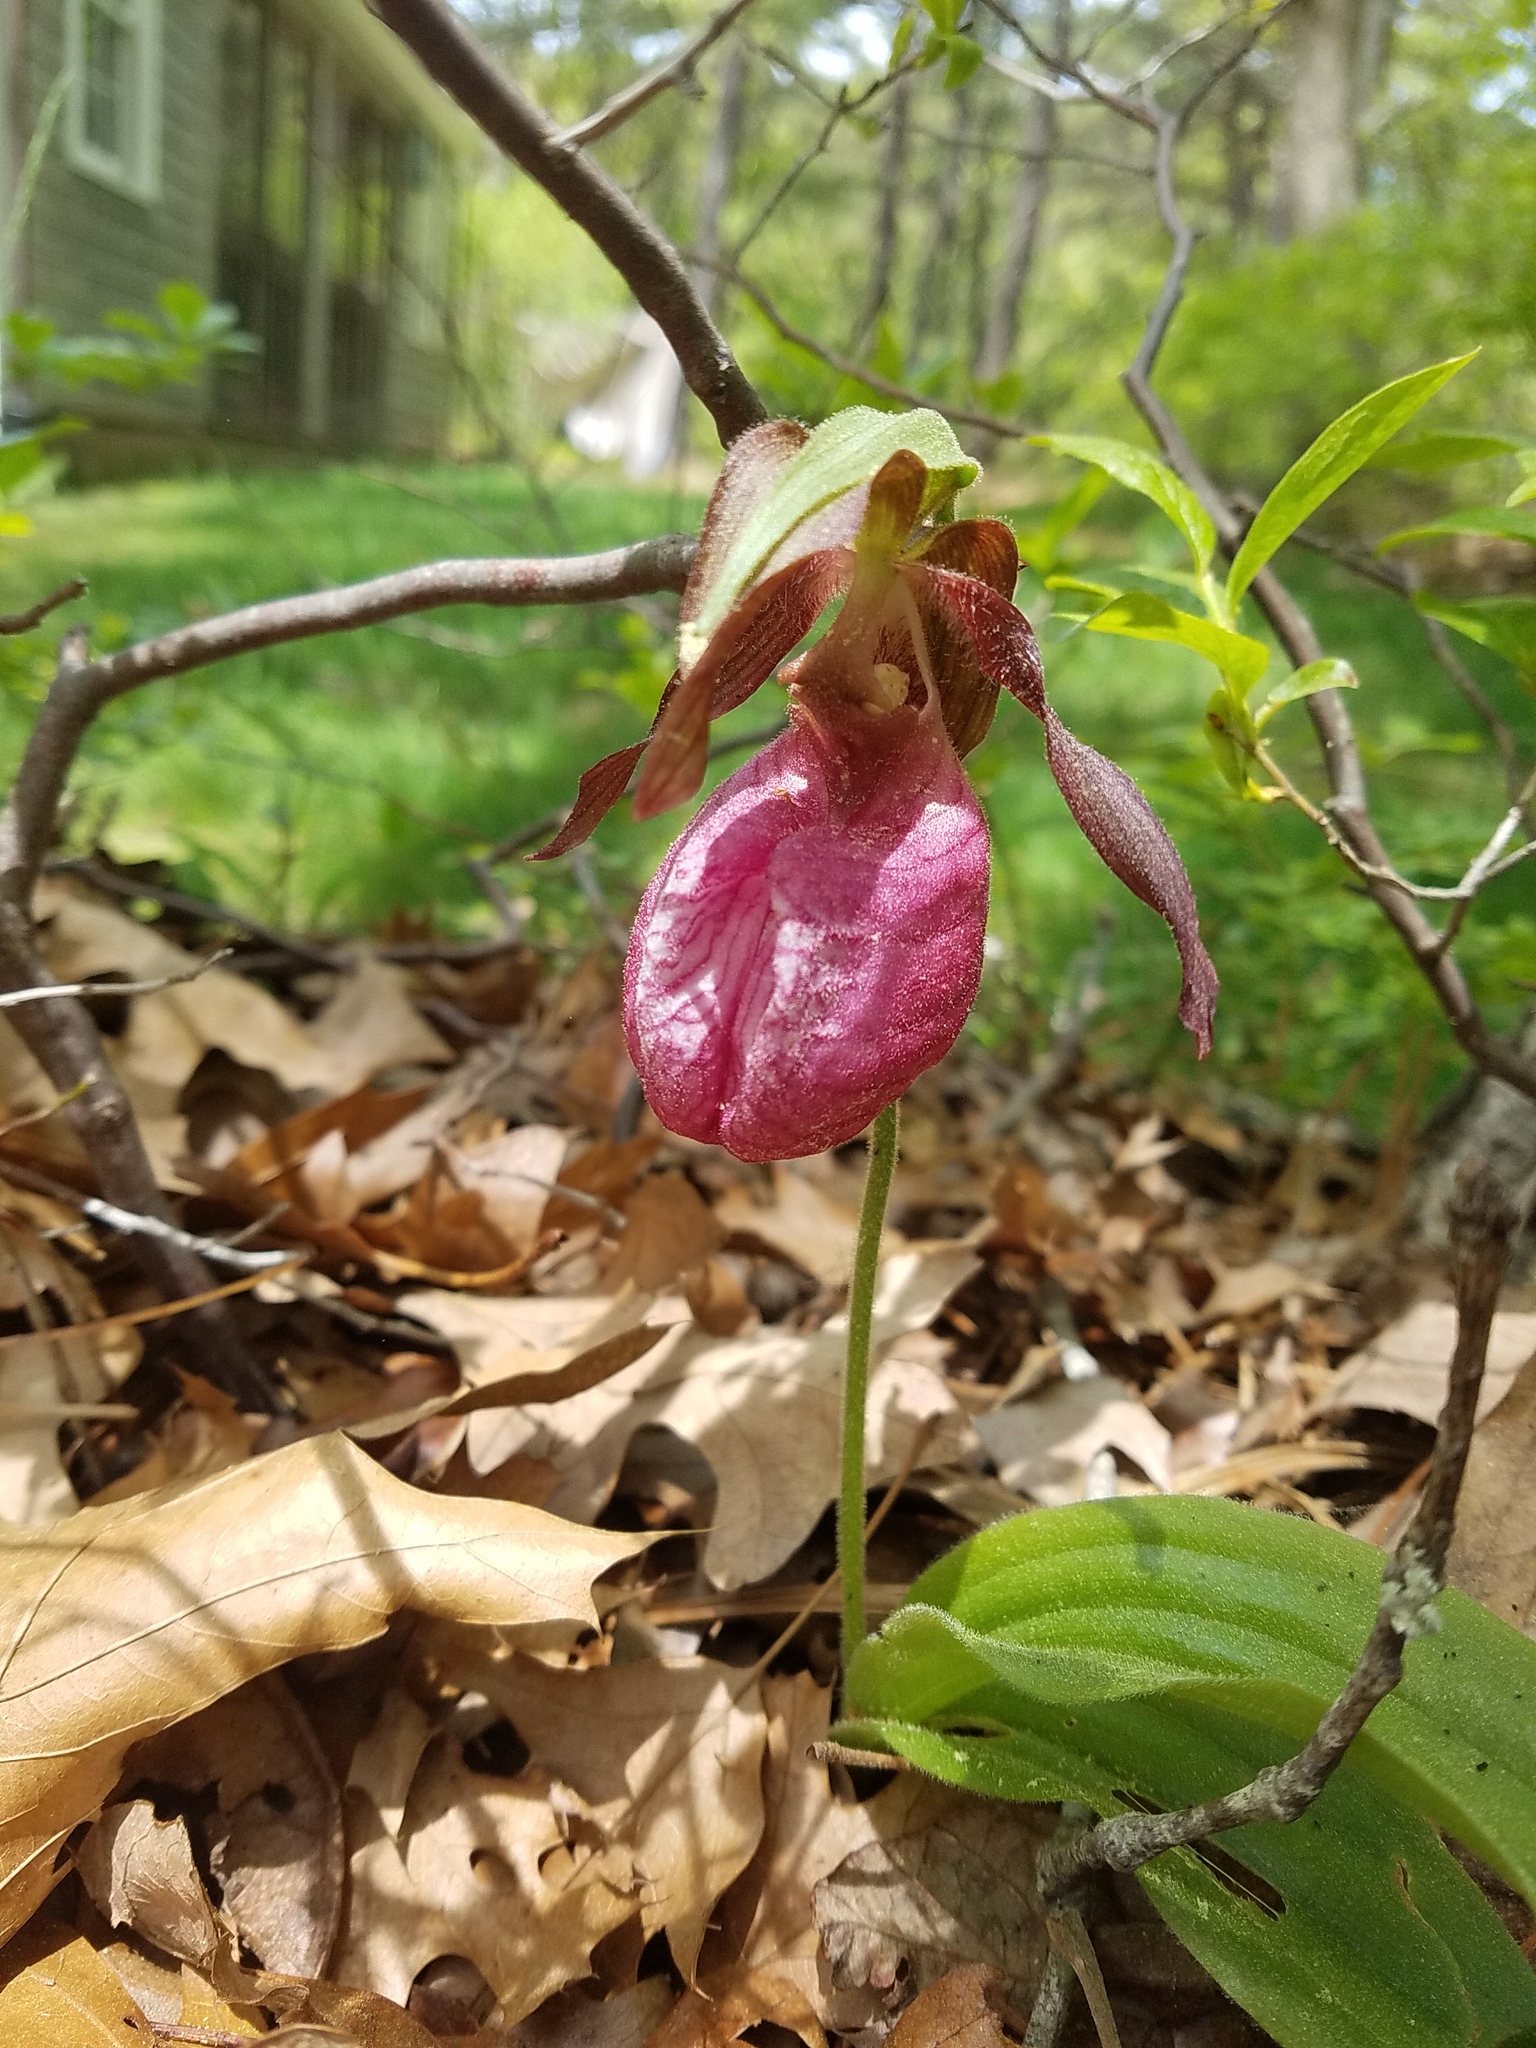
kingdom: Plantae
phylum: Tracheophyta
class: Liliopsida
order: Asparagales
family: Orchidaceae
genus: Cypripedium
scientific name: Cypripedium acaule
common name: Pink lady's-slipper
